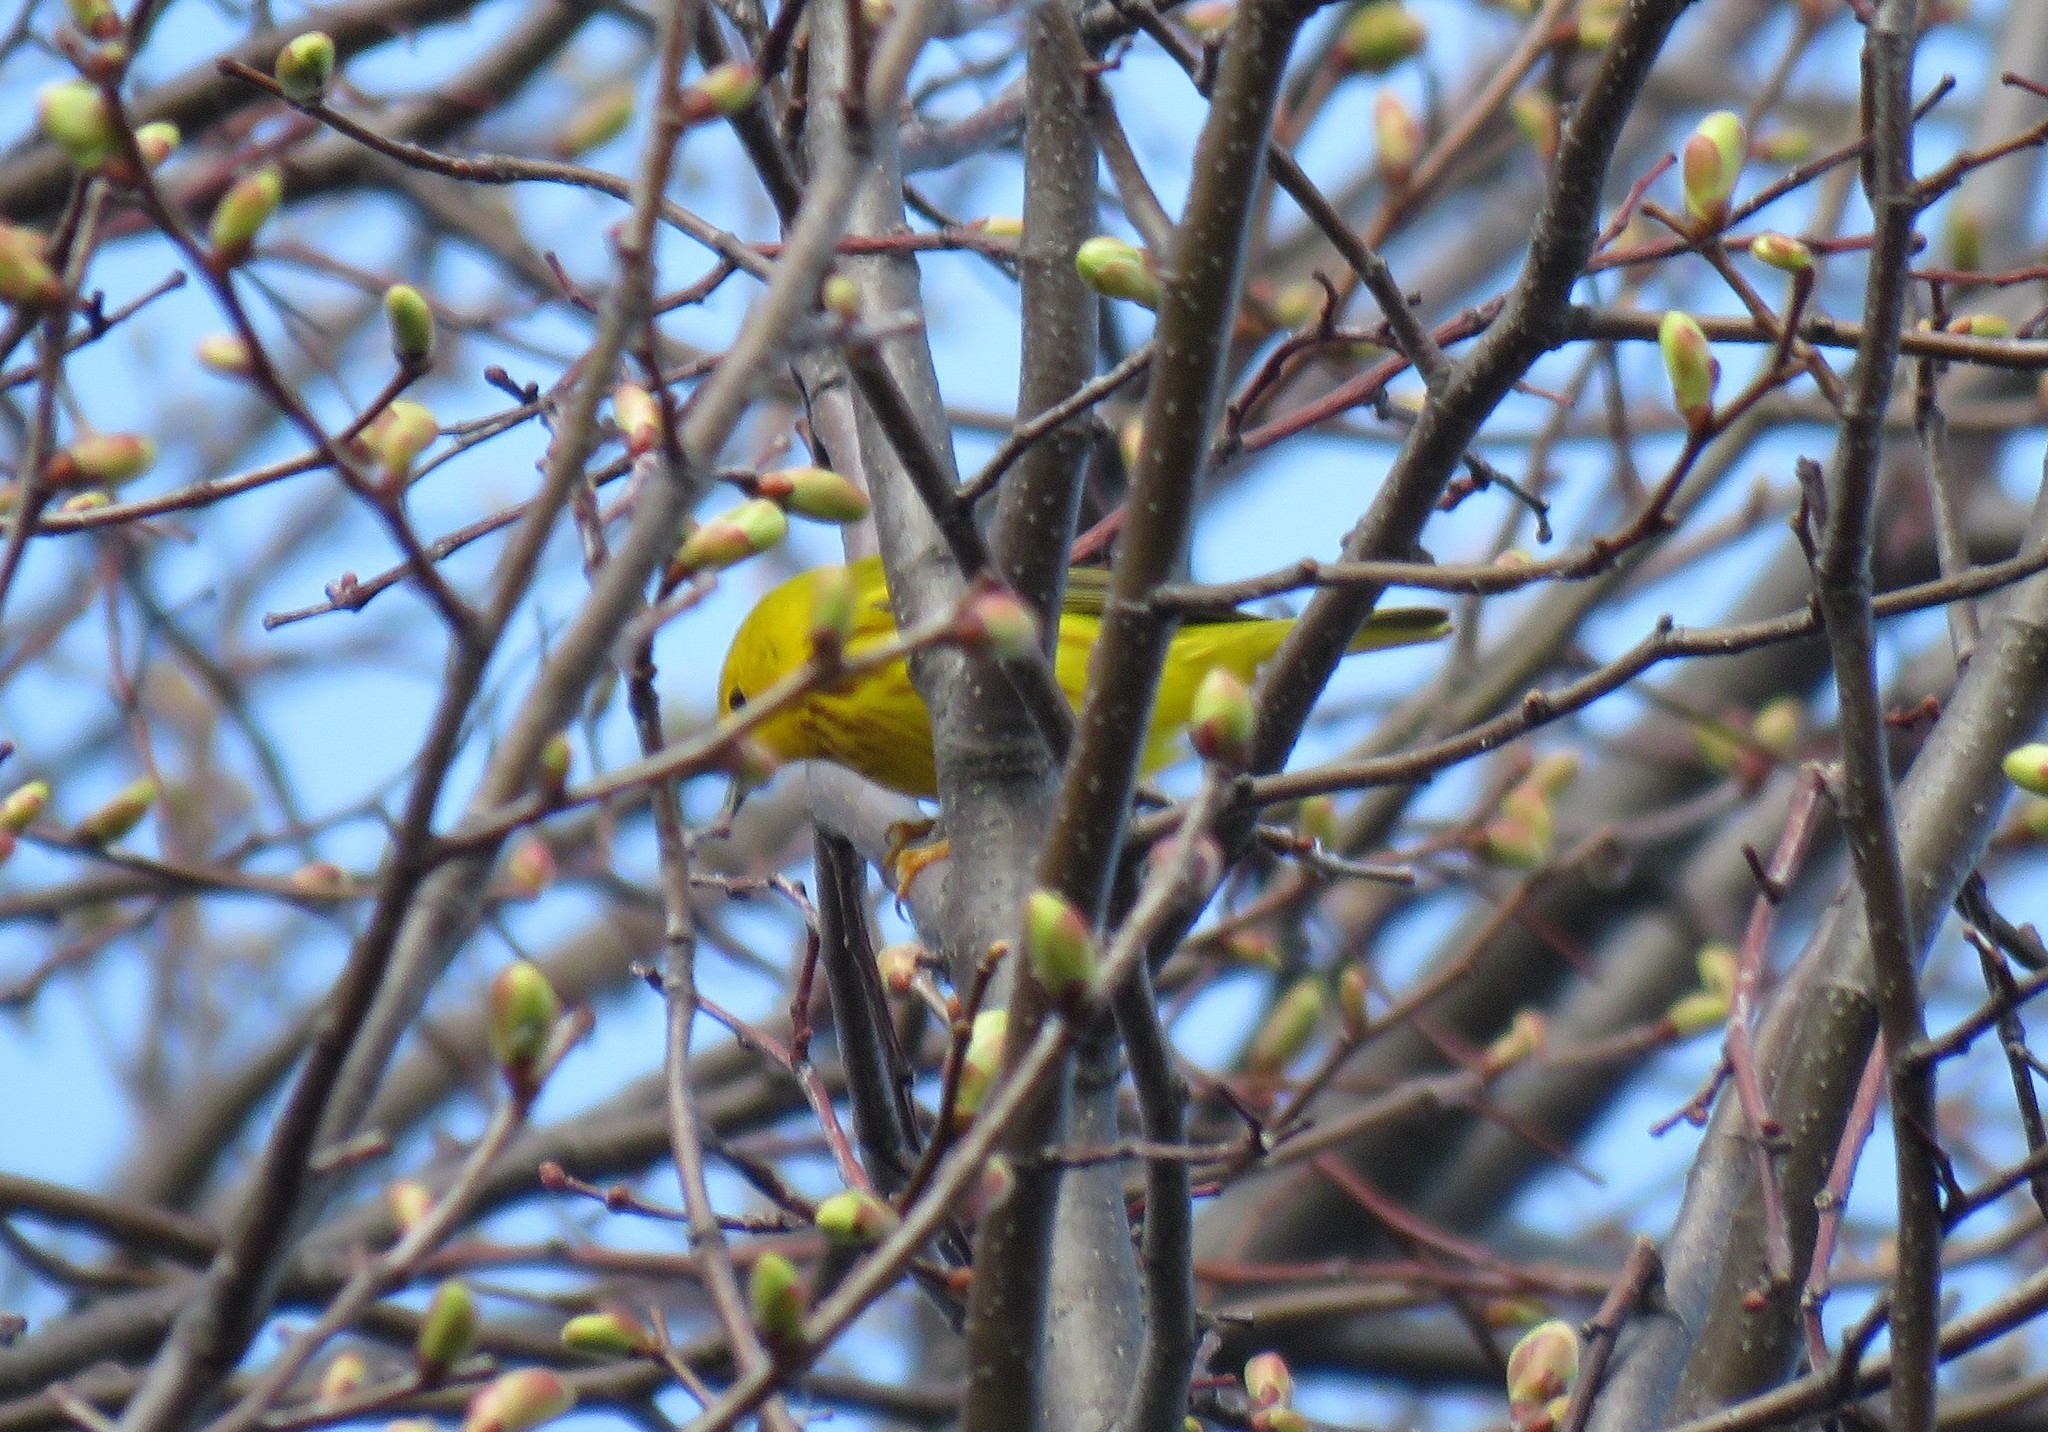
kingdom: Animalia
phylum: Chordata
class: Aves
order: Passeriformes
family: Parulidae
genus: Setophaga
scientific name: Setophaga petechia
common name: Yellow warbler
